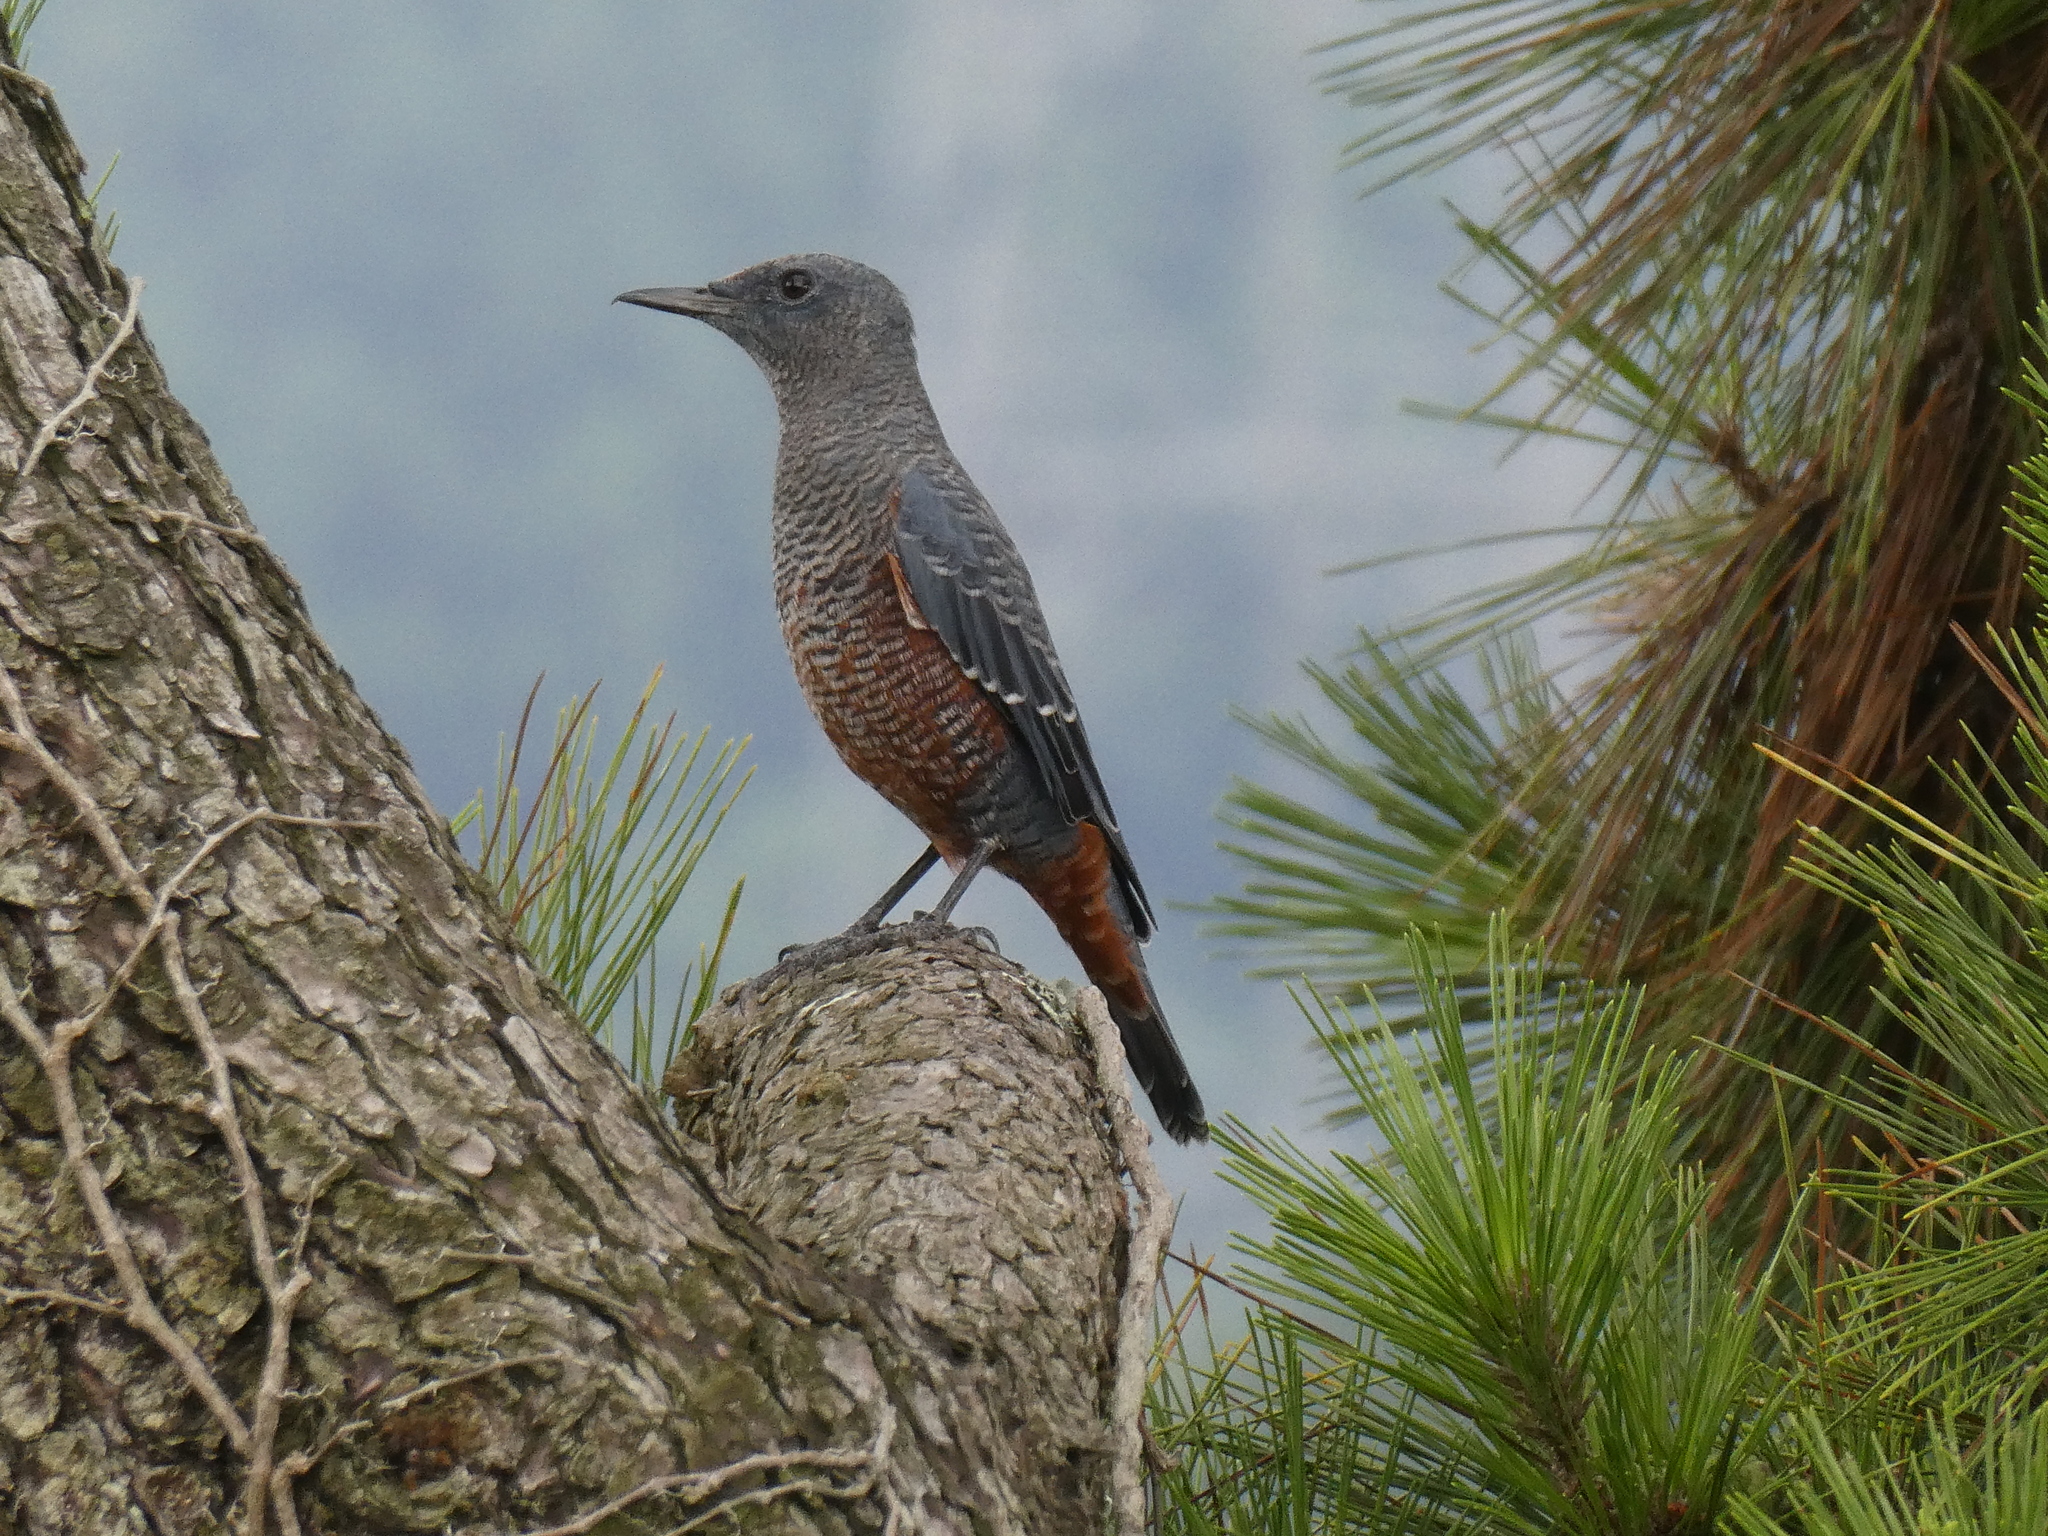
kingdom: Animalia
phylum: Chordata
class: Aves
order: Passeriformes
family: Muscicapidae
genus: Monticola
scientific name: Monticola solitarius
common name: Blue rock thrush
